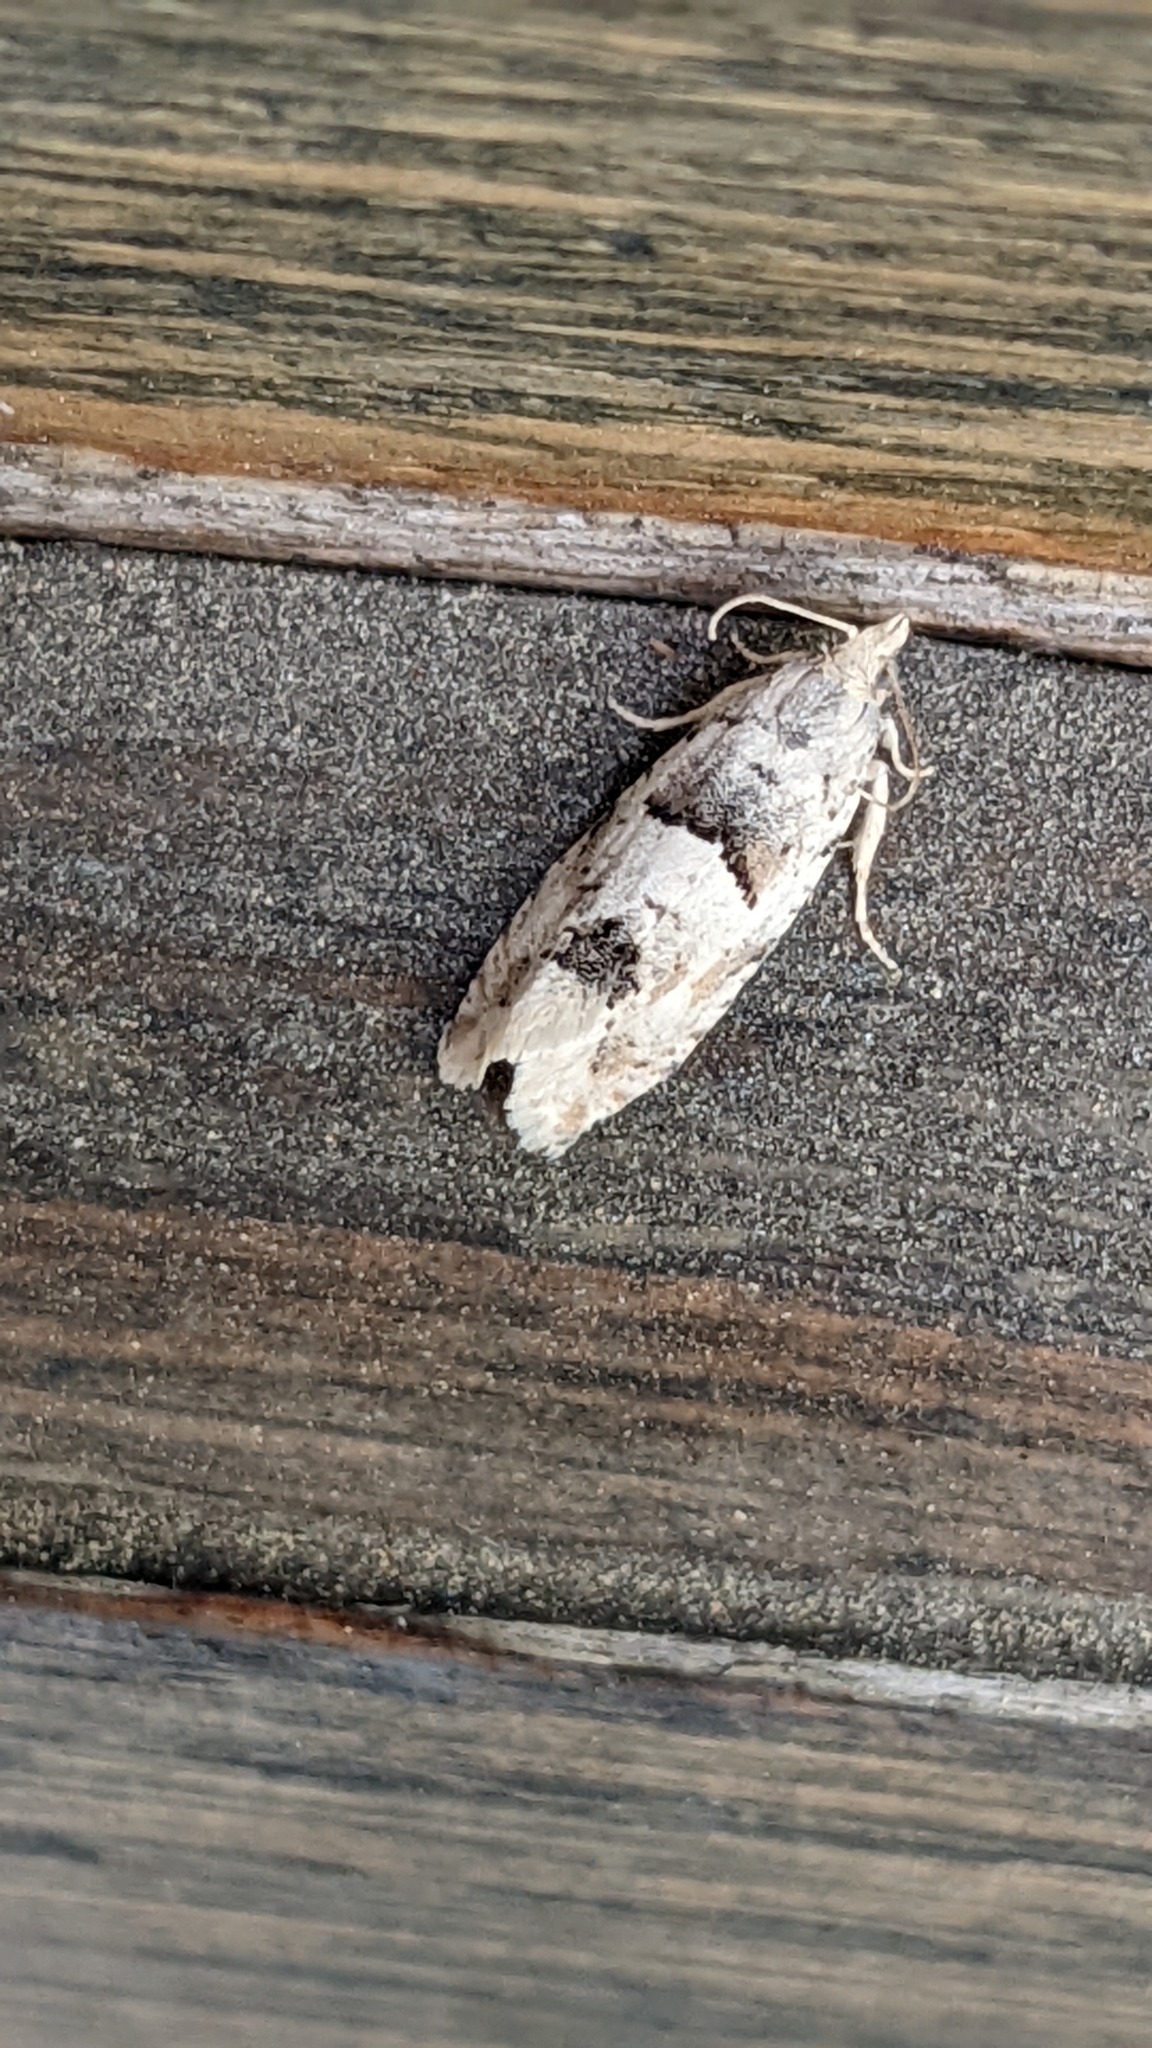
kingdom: Animalia
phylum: Arthropoda
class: Insecta
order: Lepidoptera
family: Tortricidae
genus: Epinotia
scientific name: Epinotia bilunana
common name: Crescent bell
